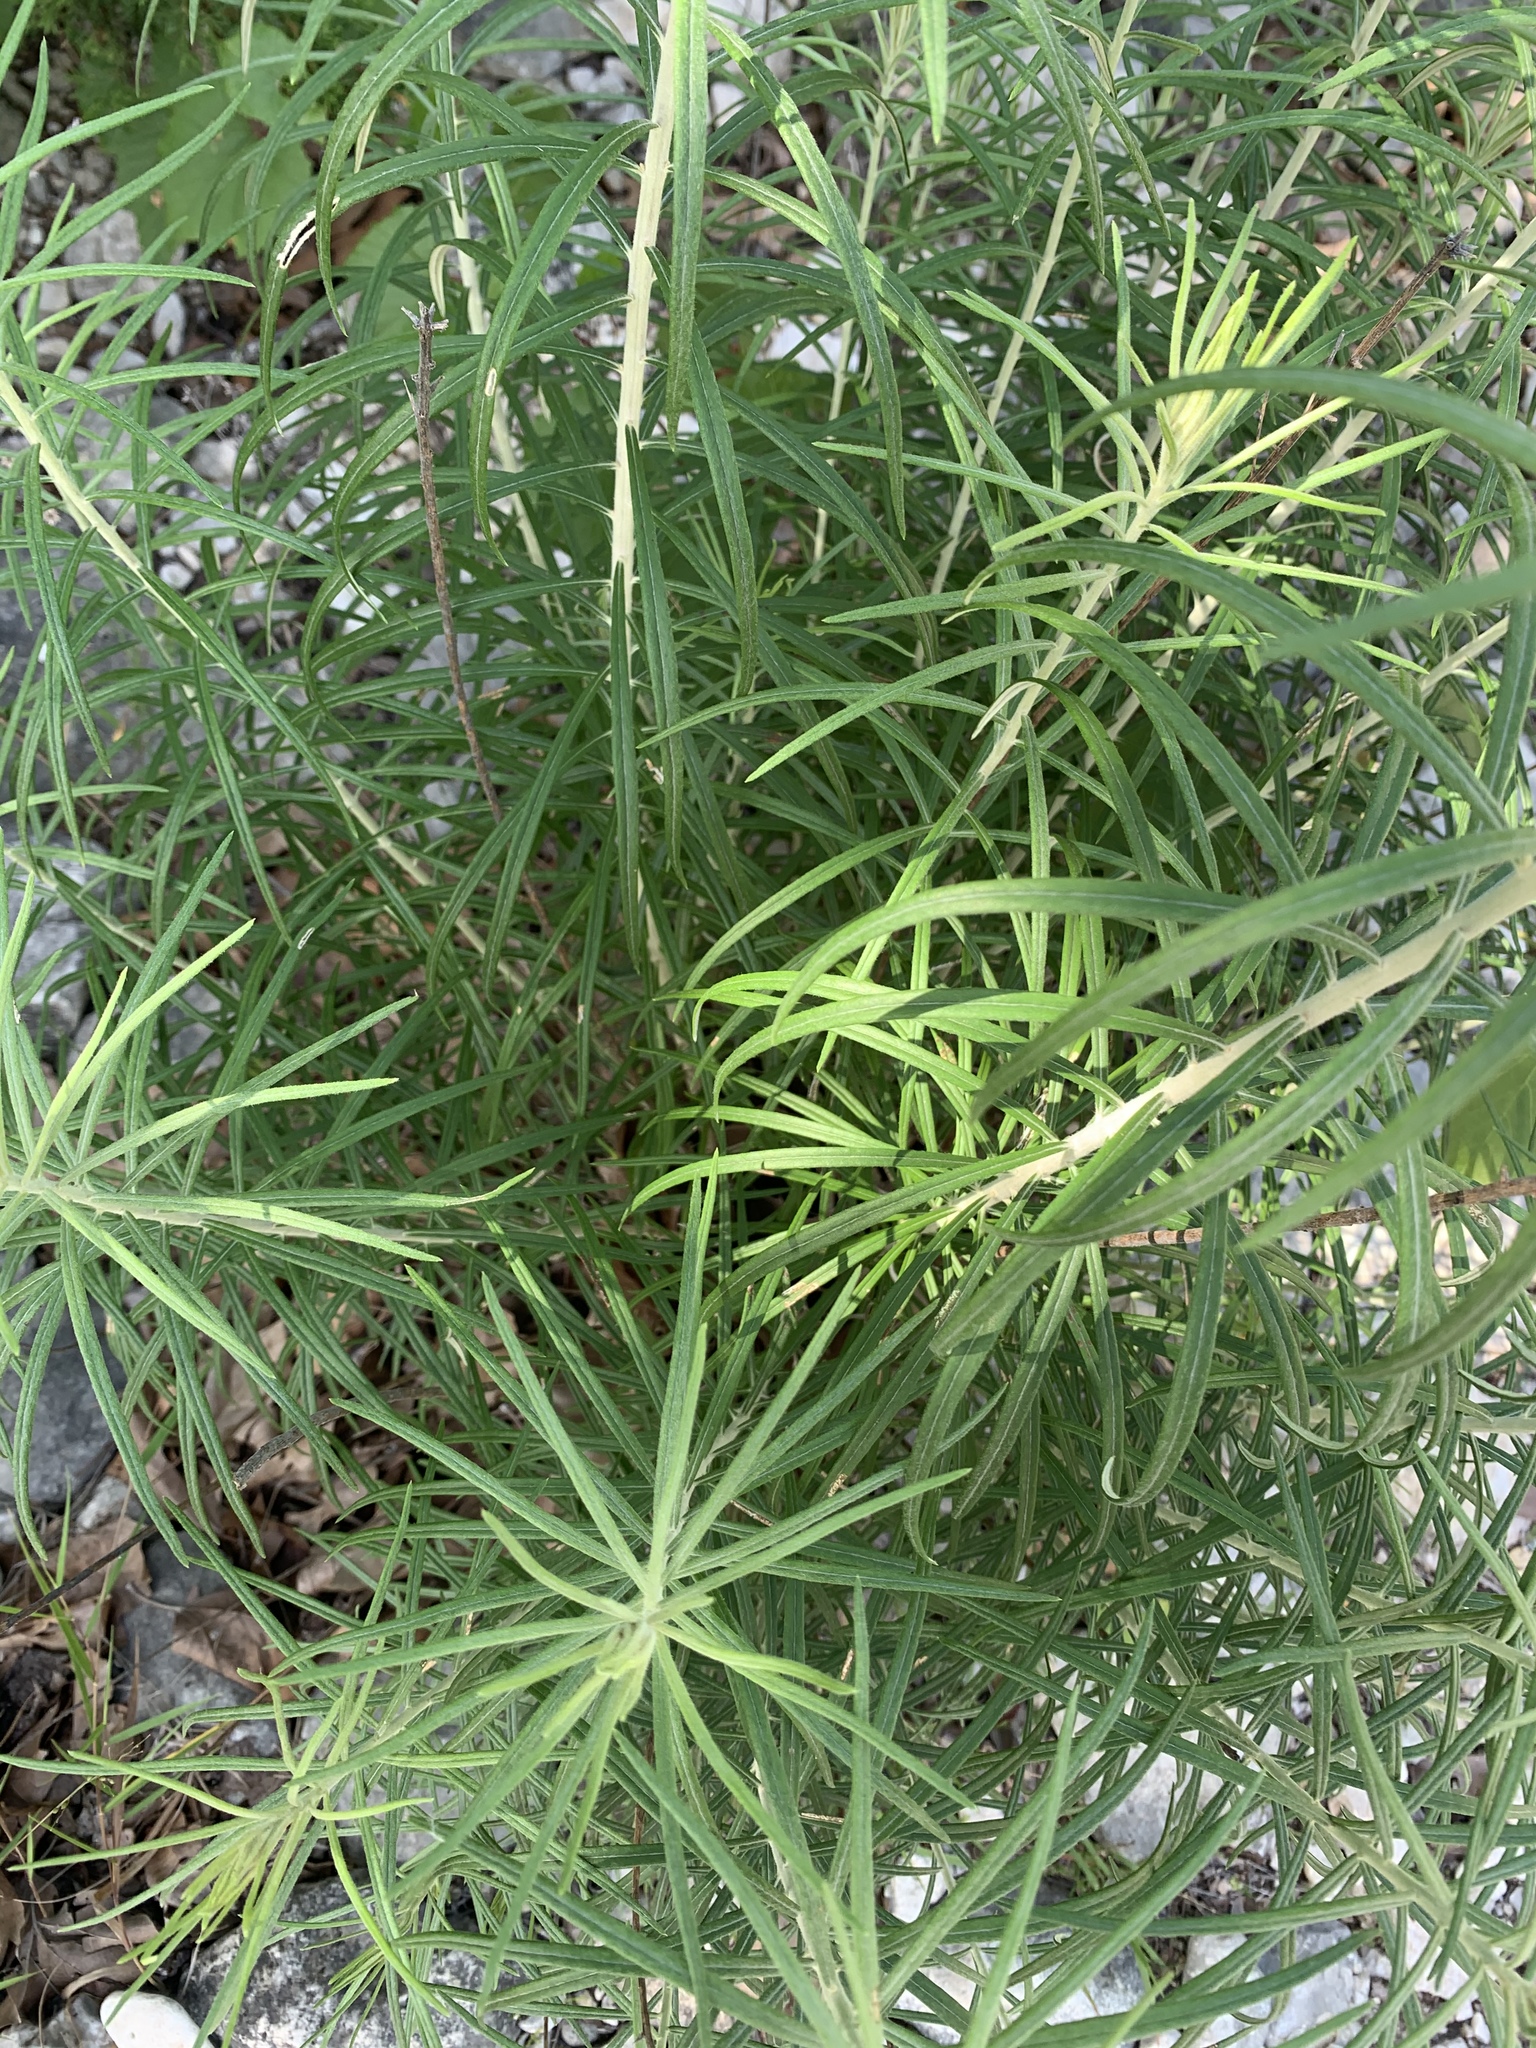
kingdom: Plantae
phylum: Tracheophyta
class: Magnoliopsida
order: Asterales
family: Asteraceae
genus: Vernonia
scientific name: Vernonia lindheimeri
